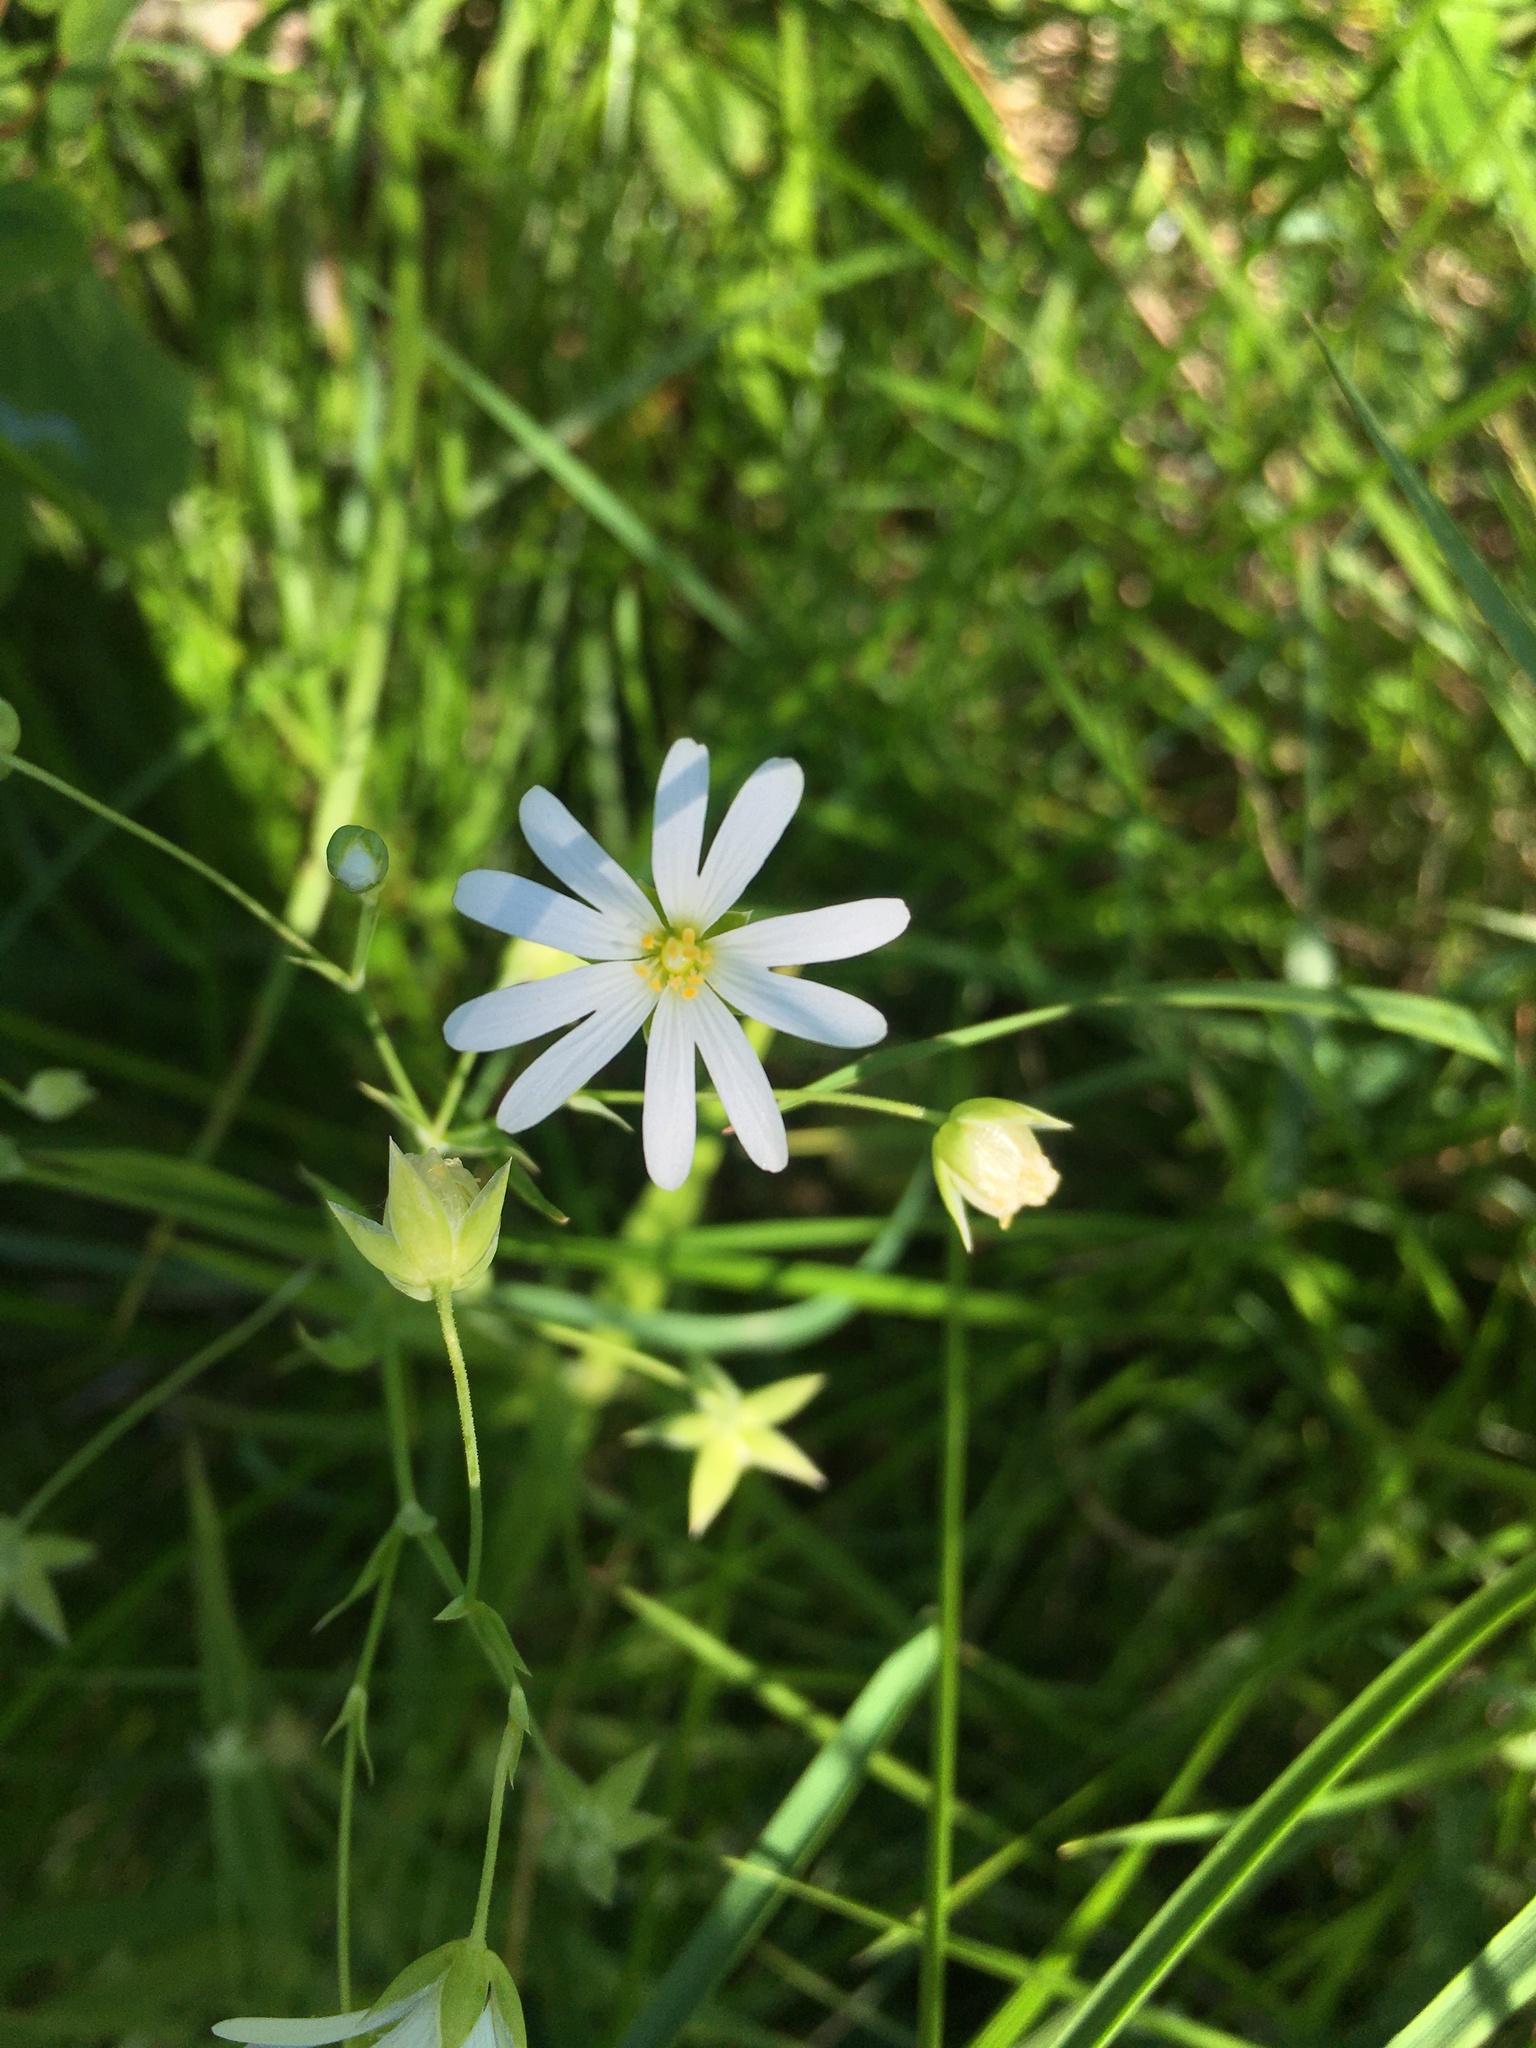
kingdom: Plantae
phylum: Tracheophyta
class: Magnoliopsida
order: Caryophyllales
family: Caryophyllaceae
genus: Rabelera
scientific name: Rabelera holostea
